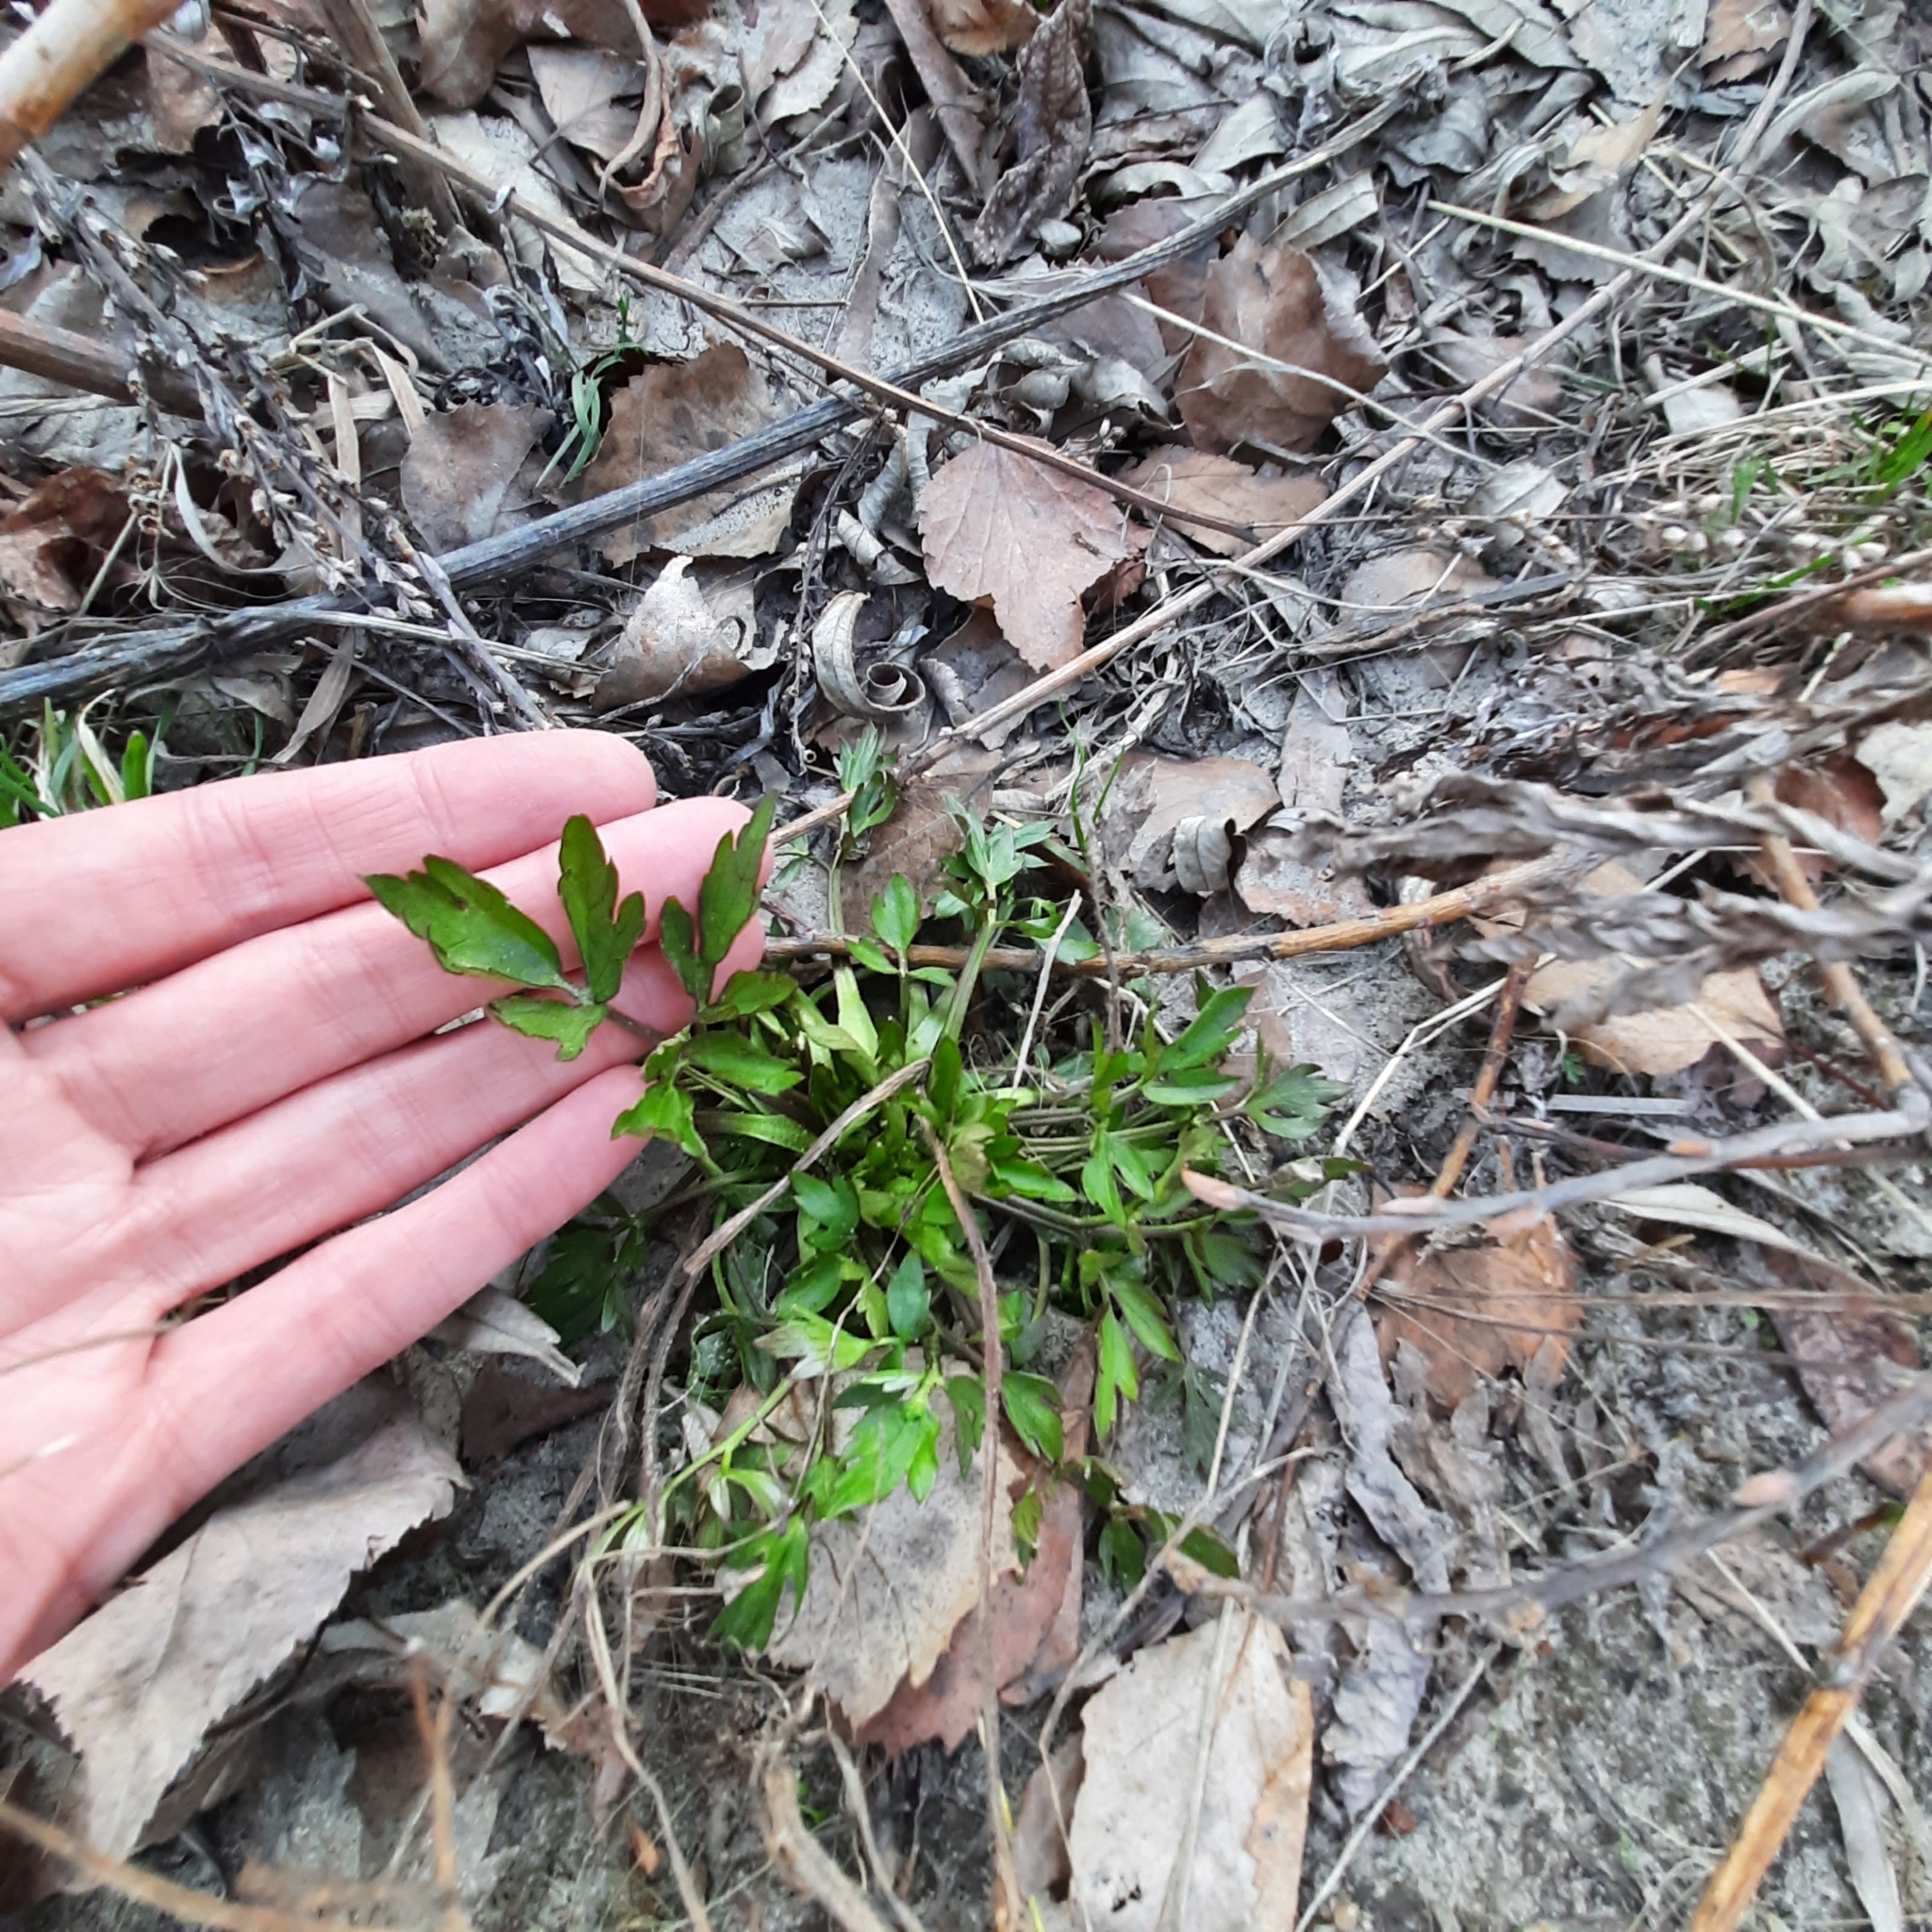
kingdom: Plantae
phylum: Tracheophyta
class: Magnoliopsida
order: Ranunculales
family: Ranunculaceae
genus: Ranunculus
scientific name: Ranunculus repens
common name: Creeping buttercup
